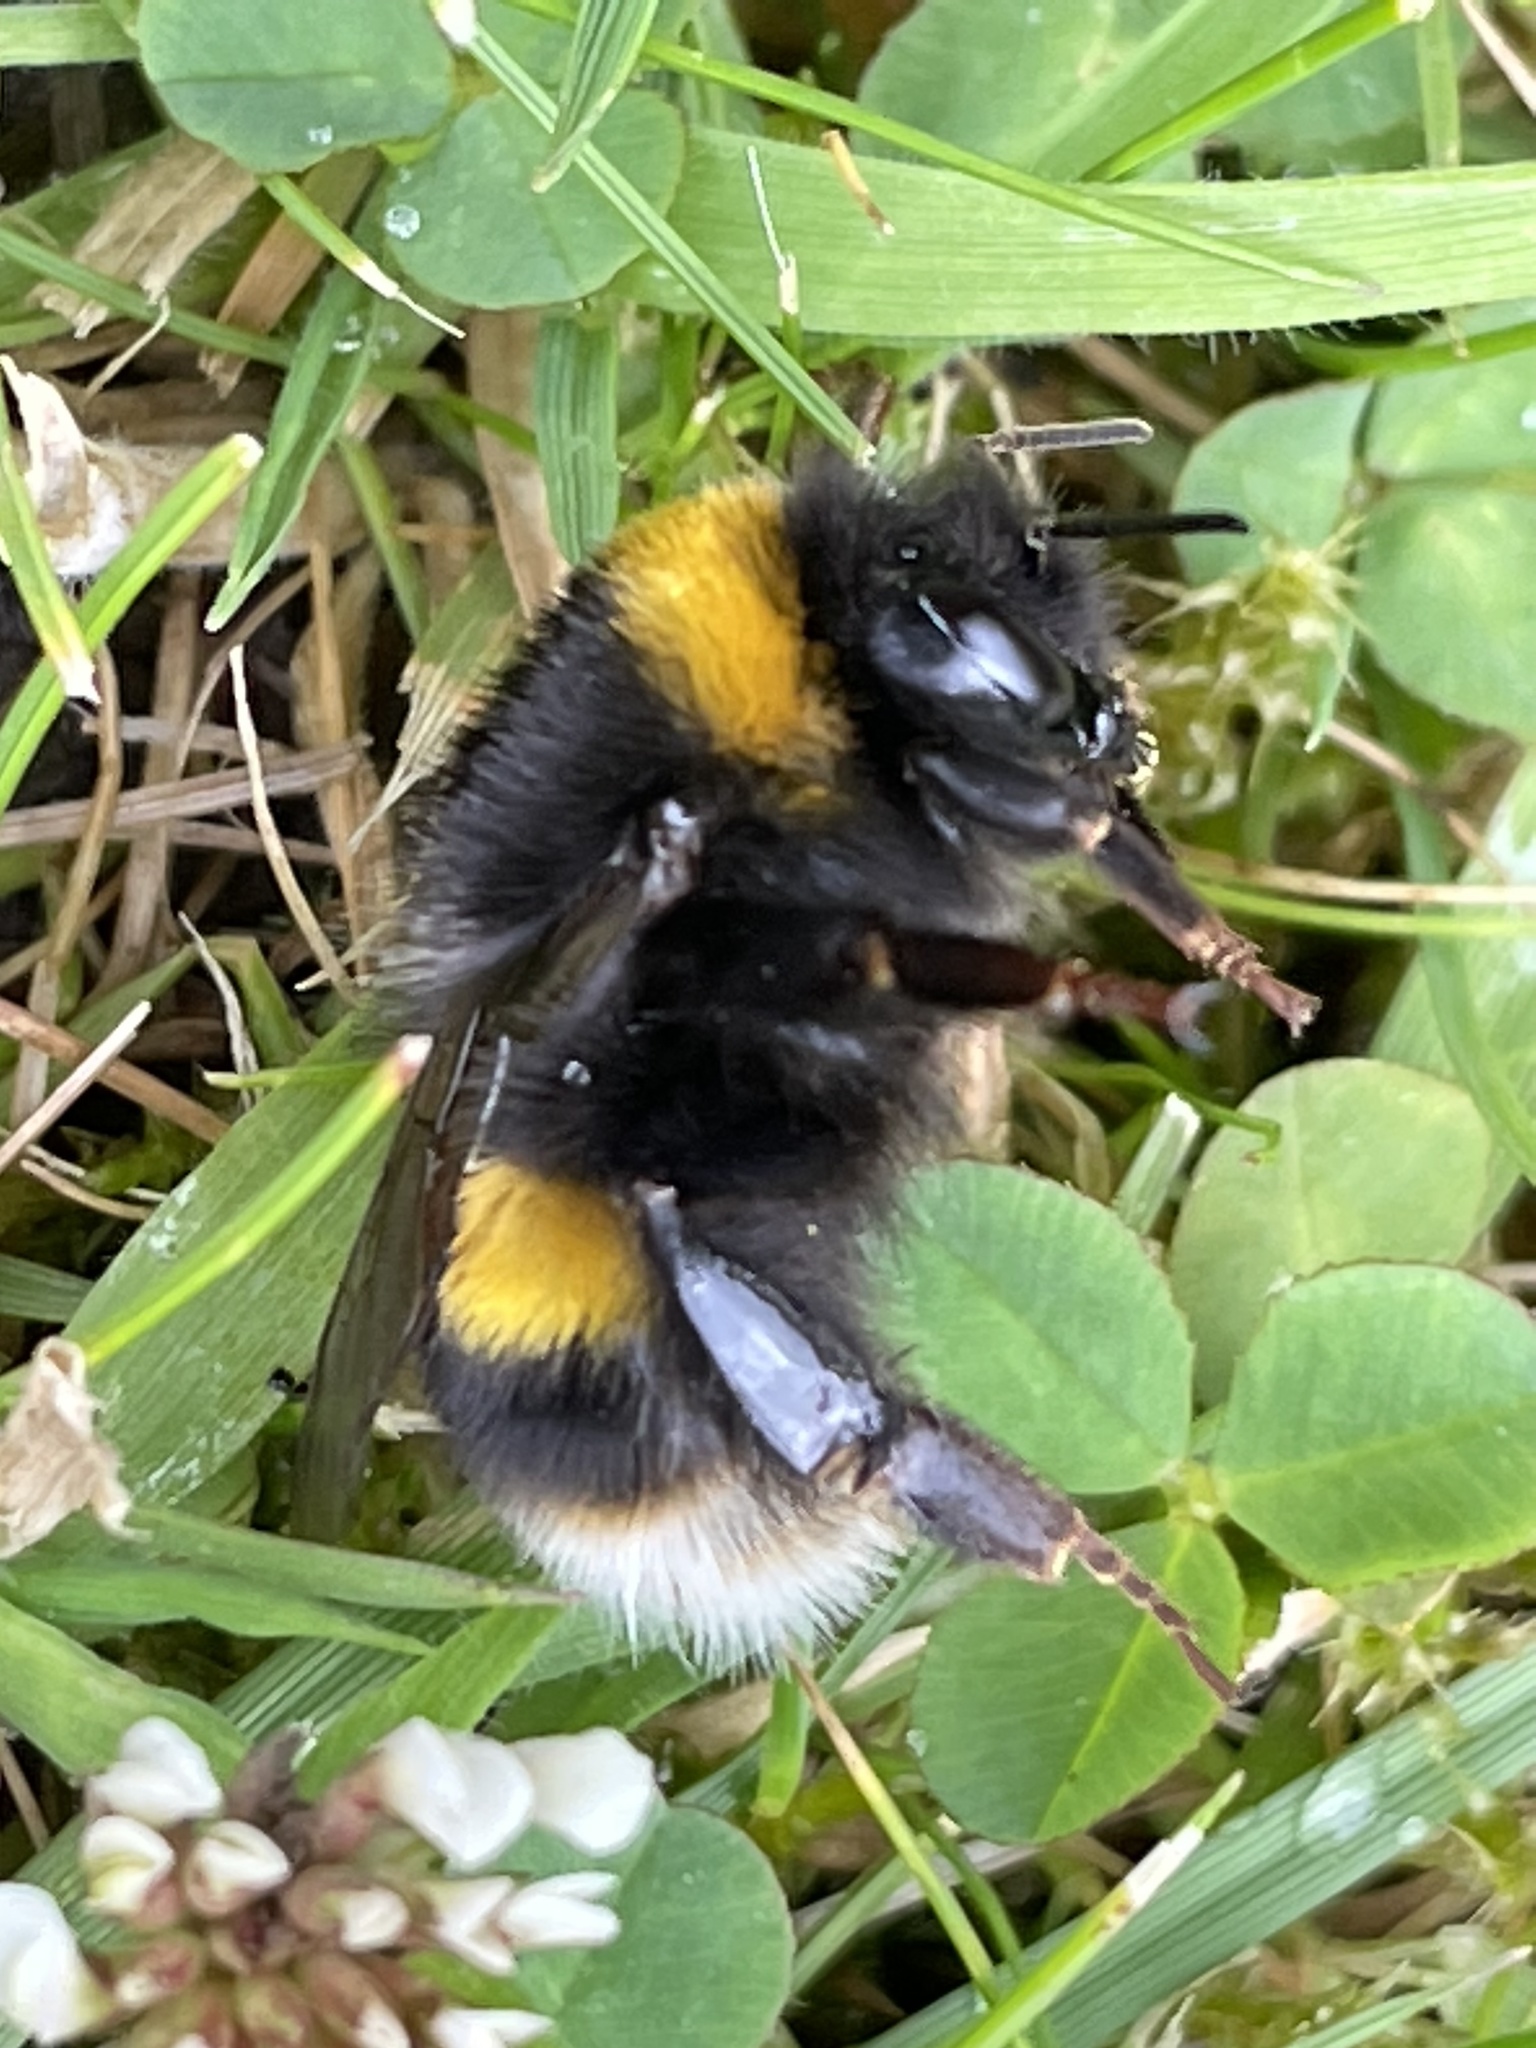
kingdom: Animalia
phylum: Arthropoda
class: Insecta
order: Hymenoptera
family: Apidae
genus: Bombus
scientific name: Bombus terrestris
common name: Buff-tailed bumblebee
